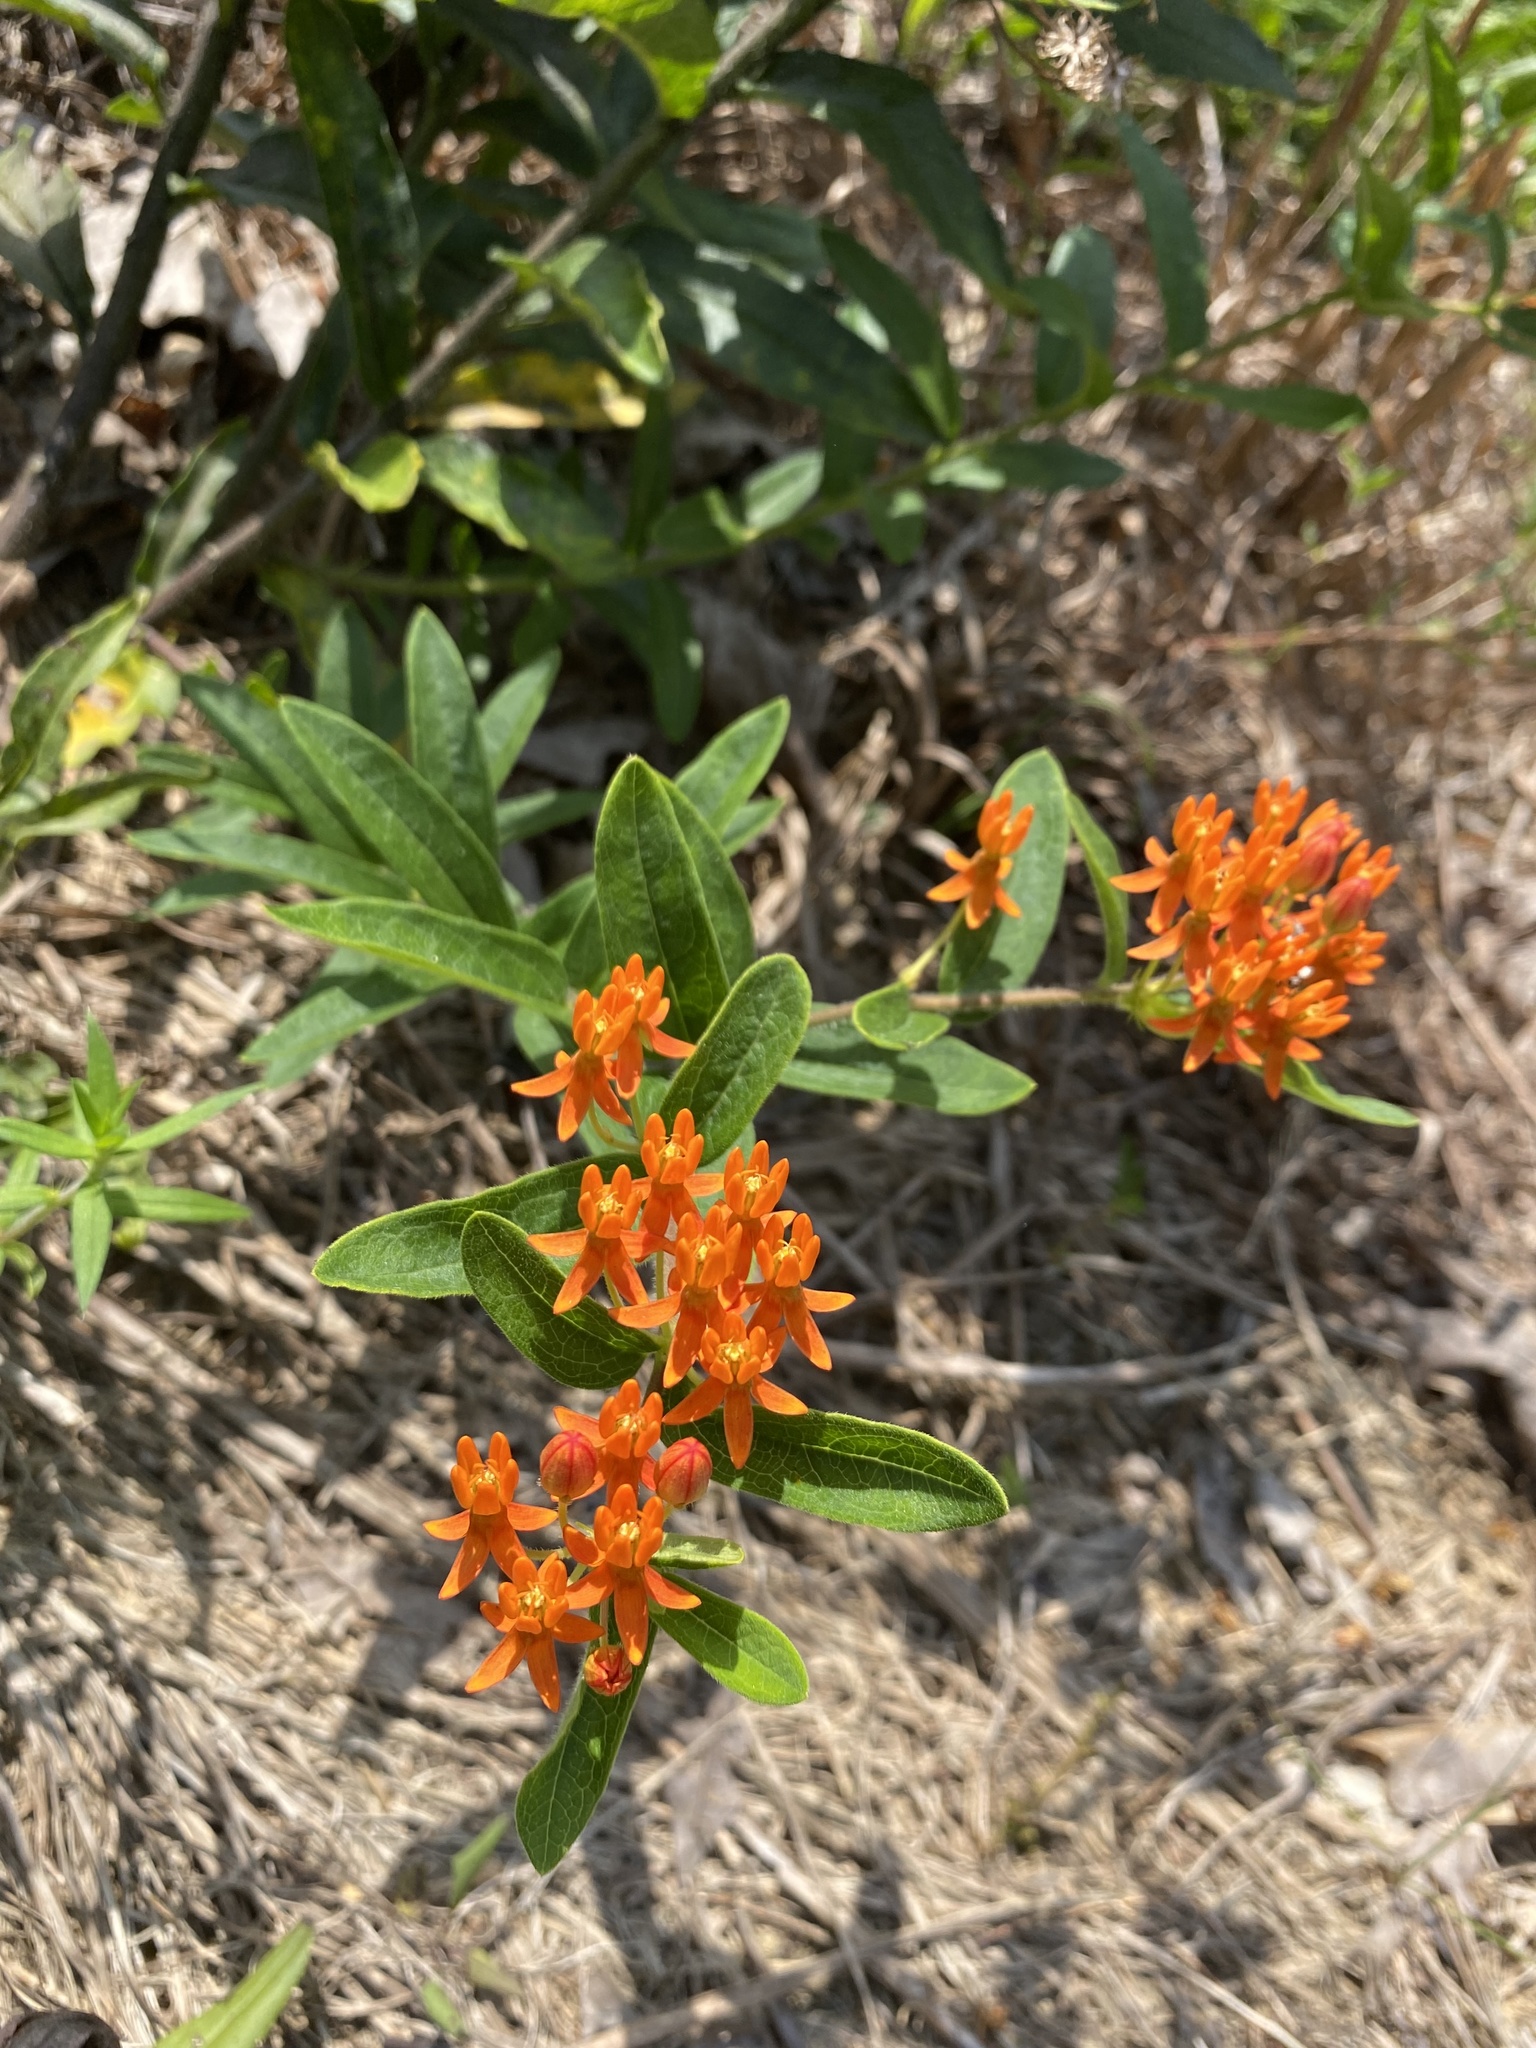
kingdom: Plantae
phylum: Tracheophyta
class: Magnoliopsida
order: Gentianales
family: Apocynaceae
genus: Asclepias
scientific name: Asclepias tuberosa
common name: Butterfly milkweed
